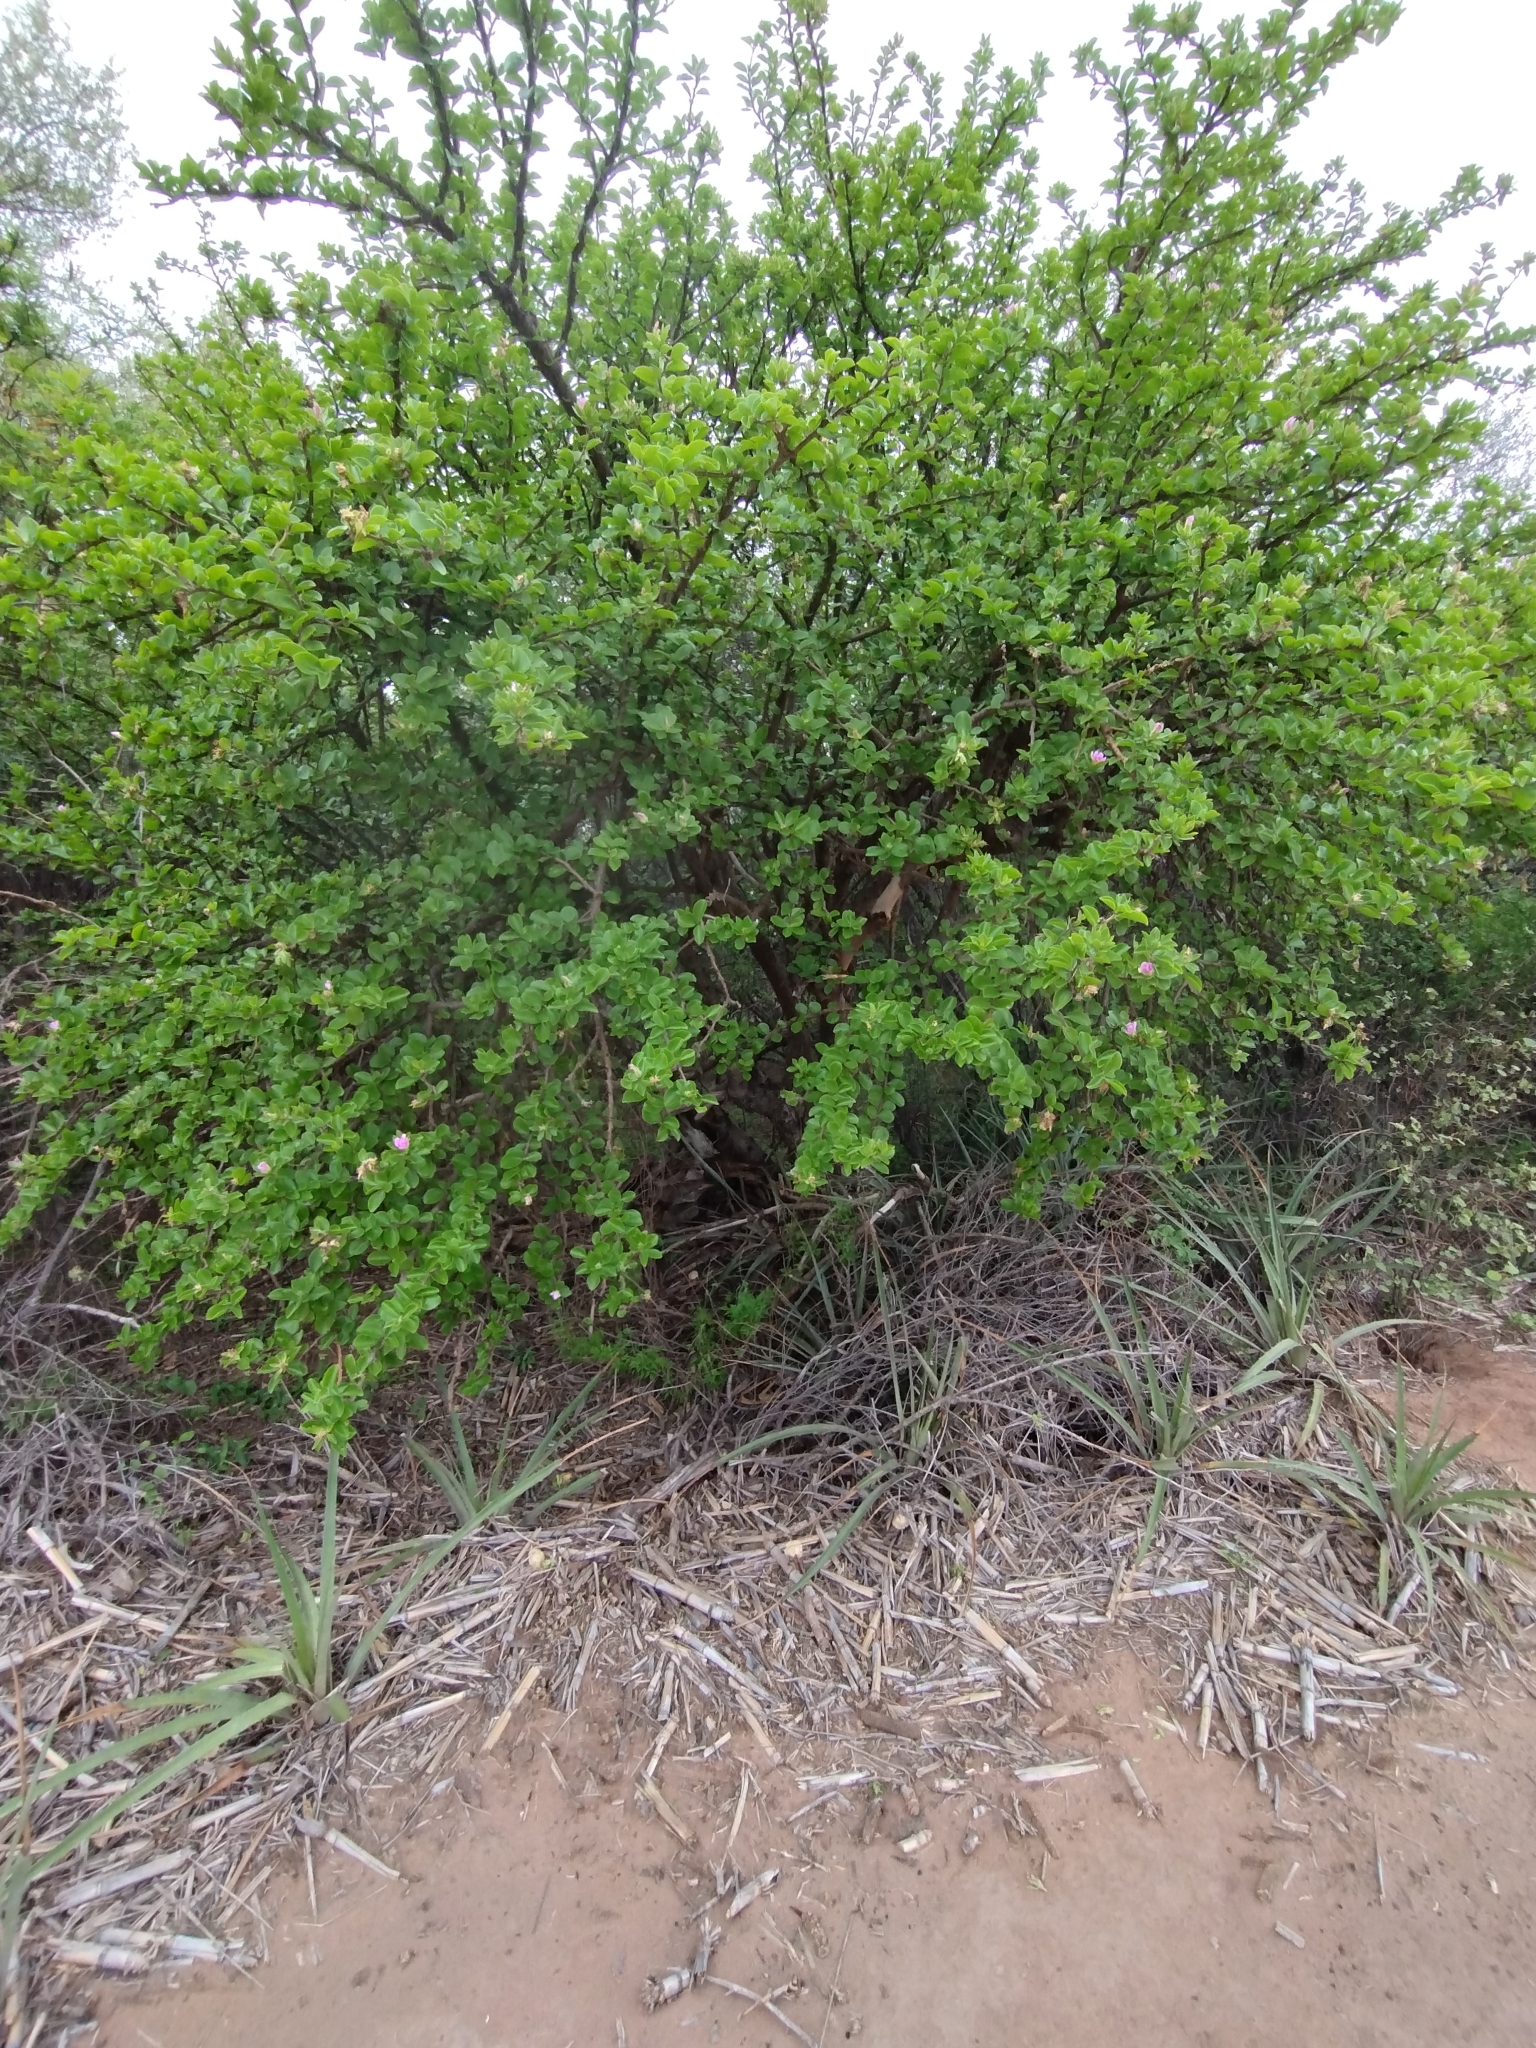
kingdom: Plantae
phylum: Tracheophyta
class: Magnoliopsida
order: Caryophyllales
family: Cactaceae
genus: Pereskia
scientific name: Pereskia sacharosa
